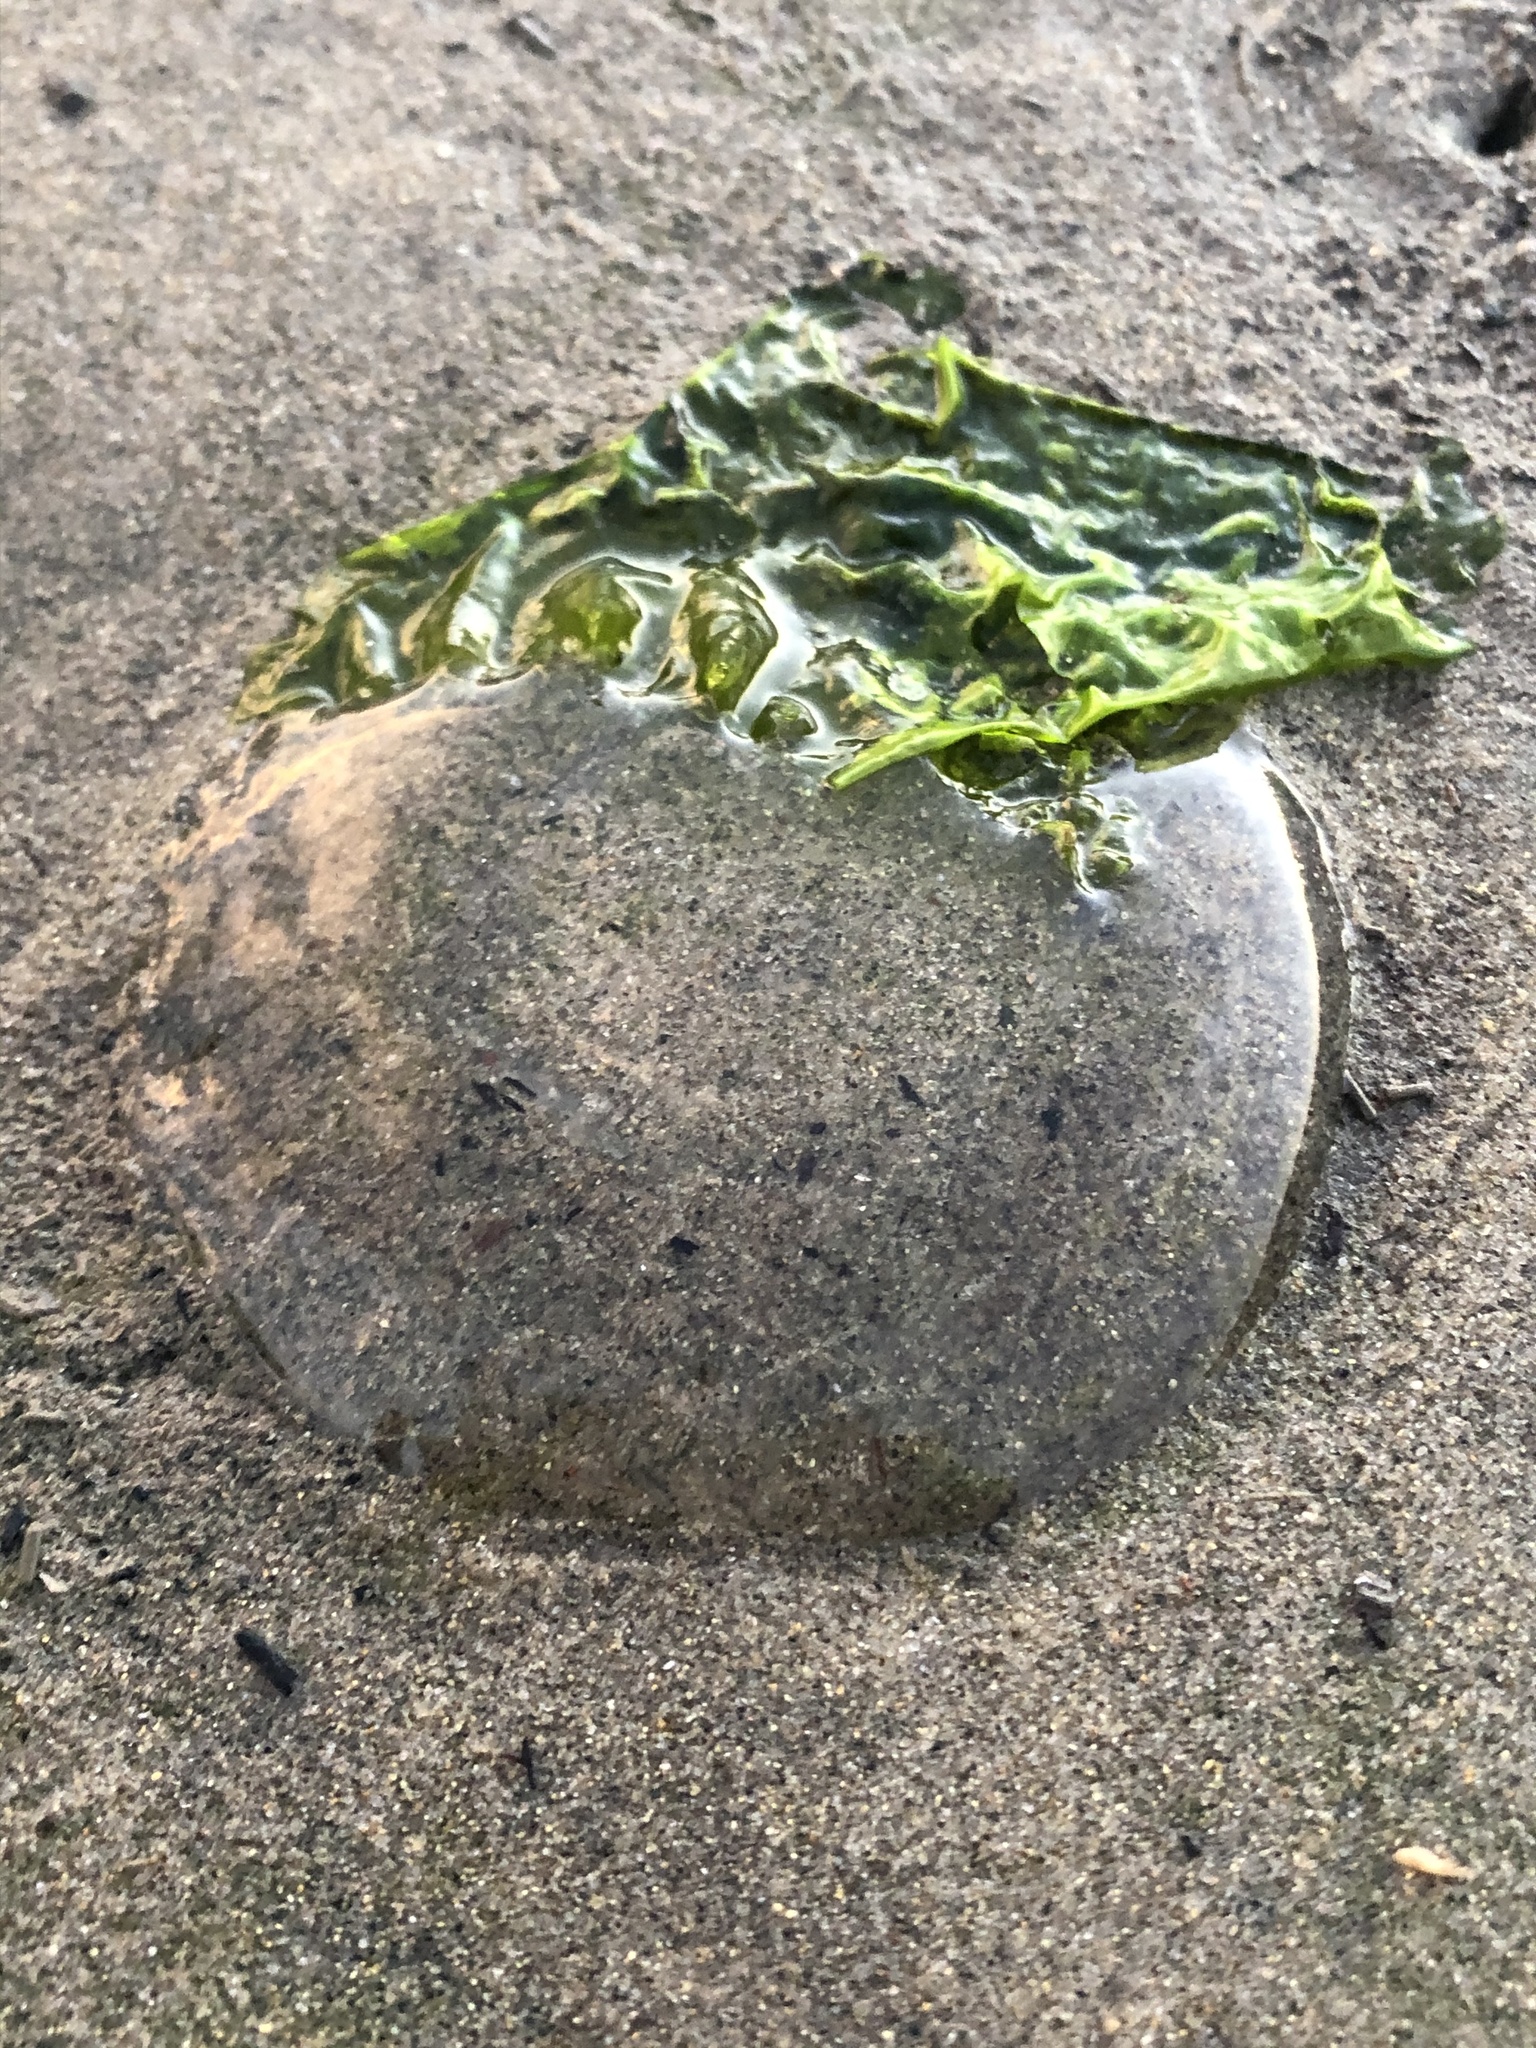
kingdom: Animalia
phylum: Cnidaria
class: Hydrozoa
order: Leptothecata
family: Aequoreidae
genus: Aequorea
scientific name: Aequorea victoria
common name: Water jellyfish
